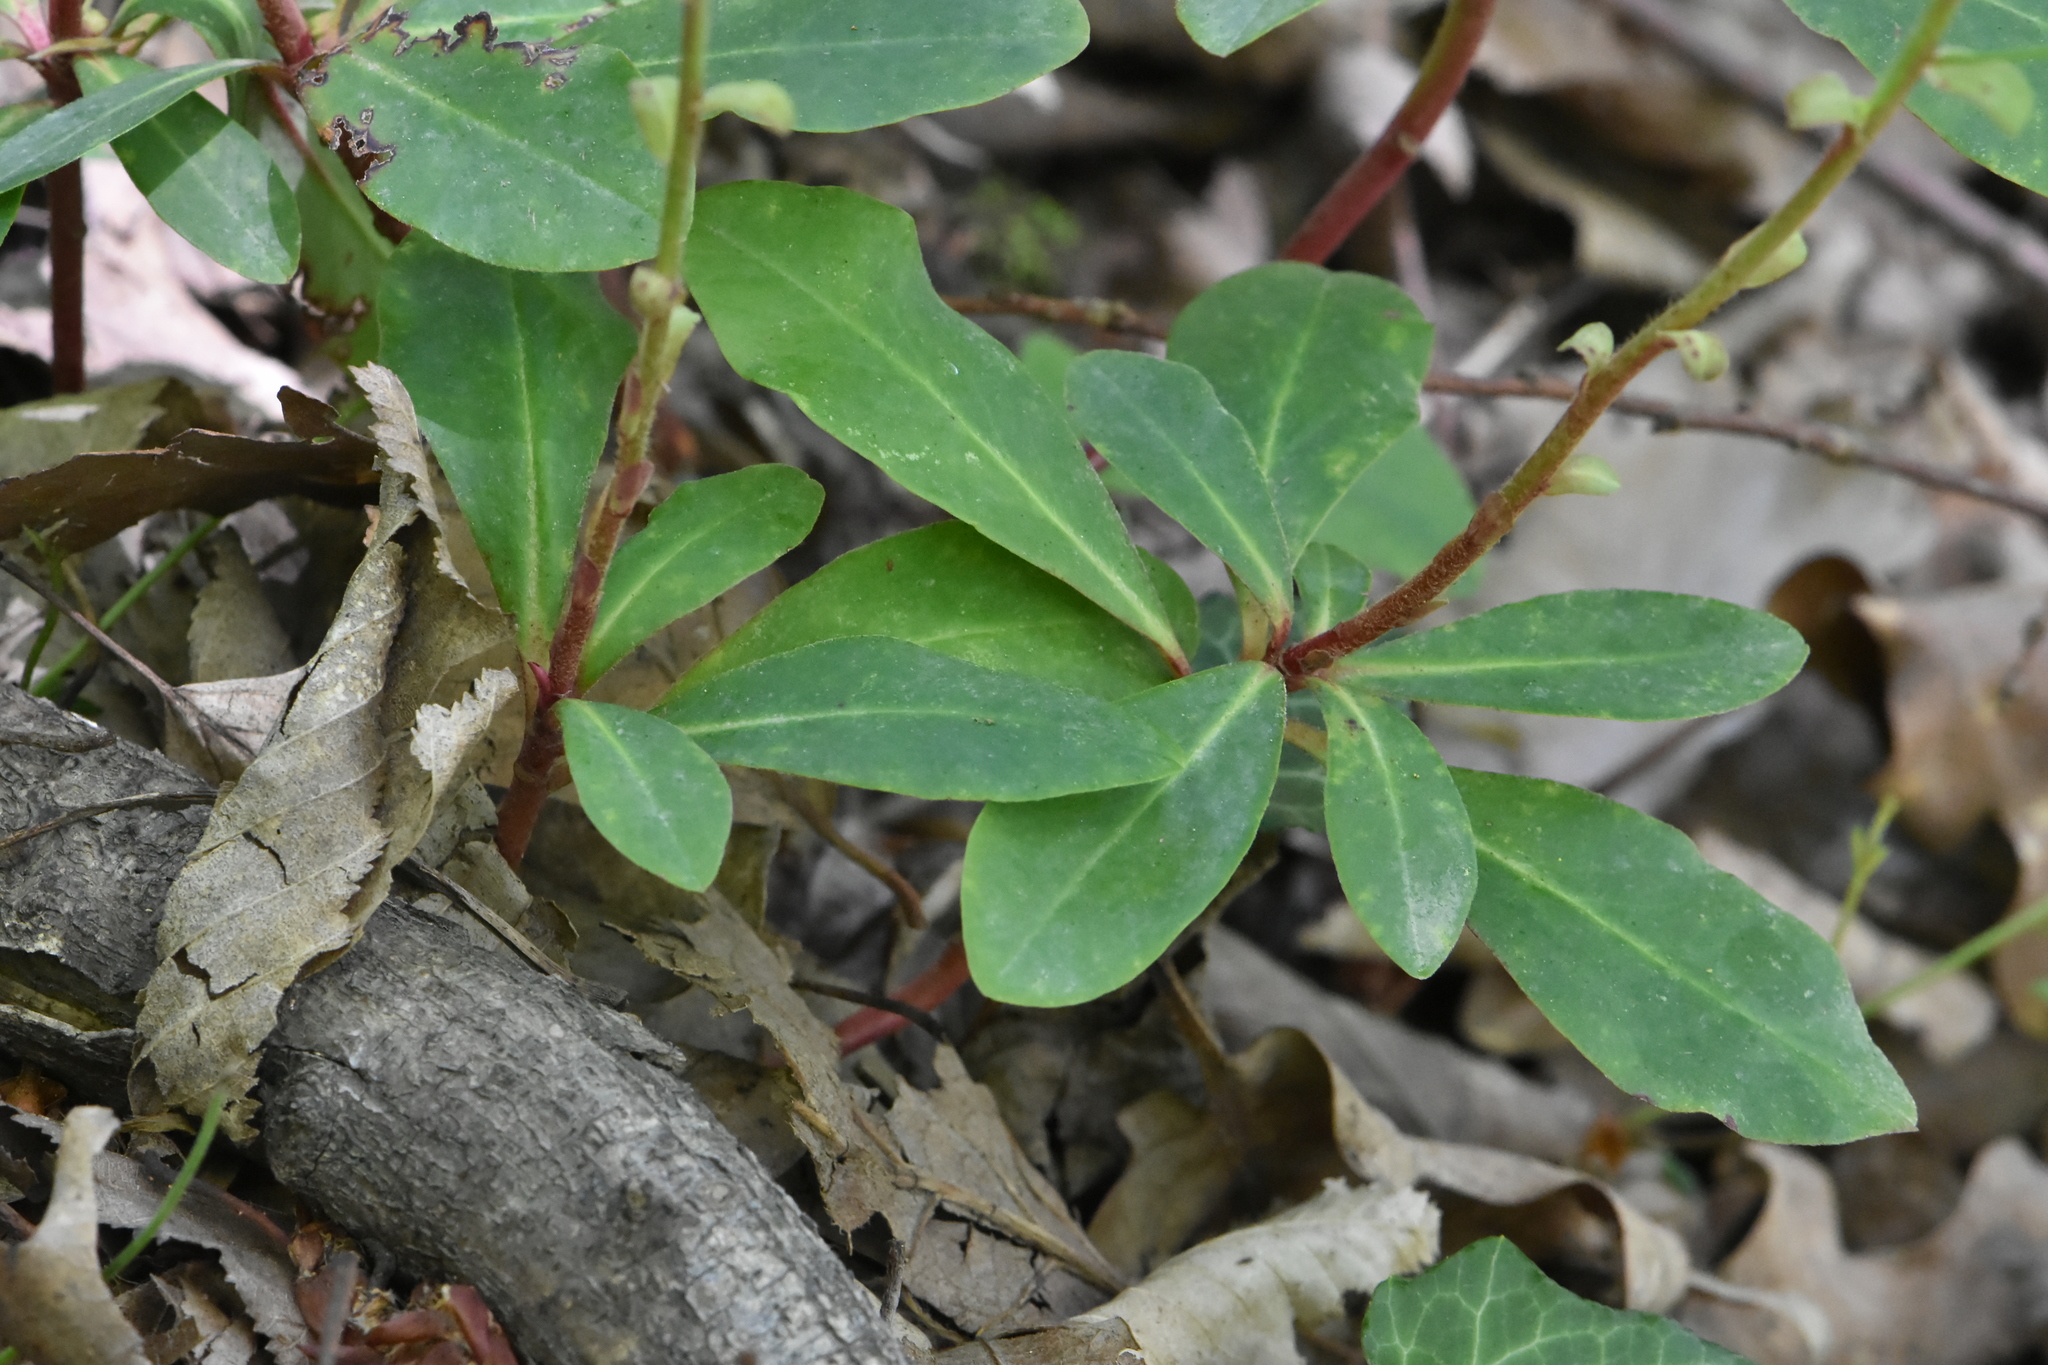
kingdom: Plantae
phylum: Tracheophyta
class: Magnoliopsida
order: Malpighiales
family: Euphorbiaceae
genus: Euphorbia
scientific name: Euphorbia amygdaloides
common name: Wood spurge
